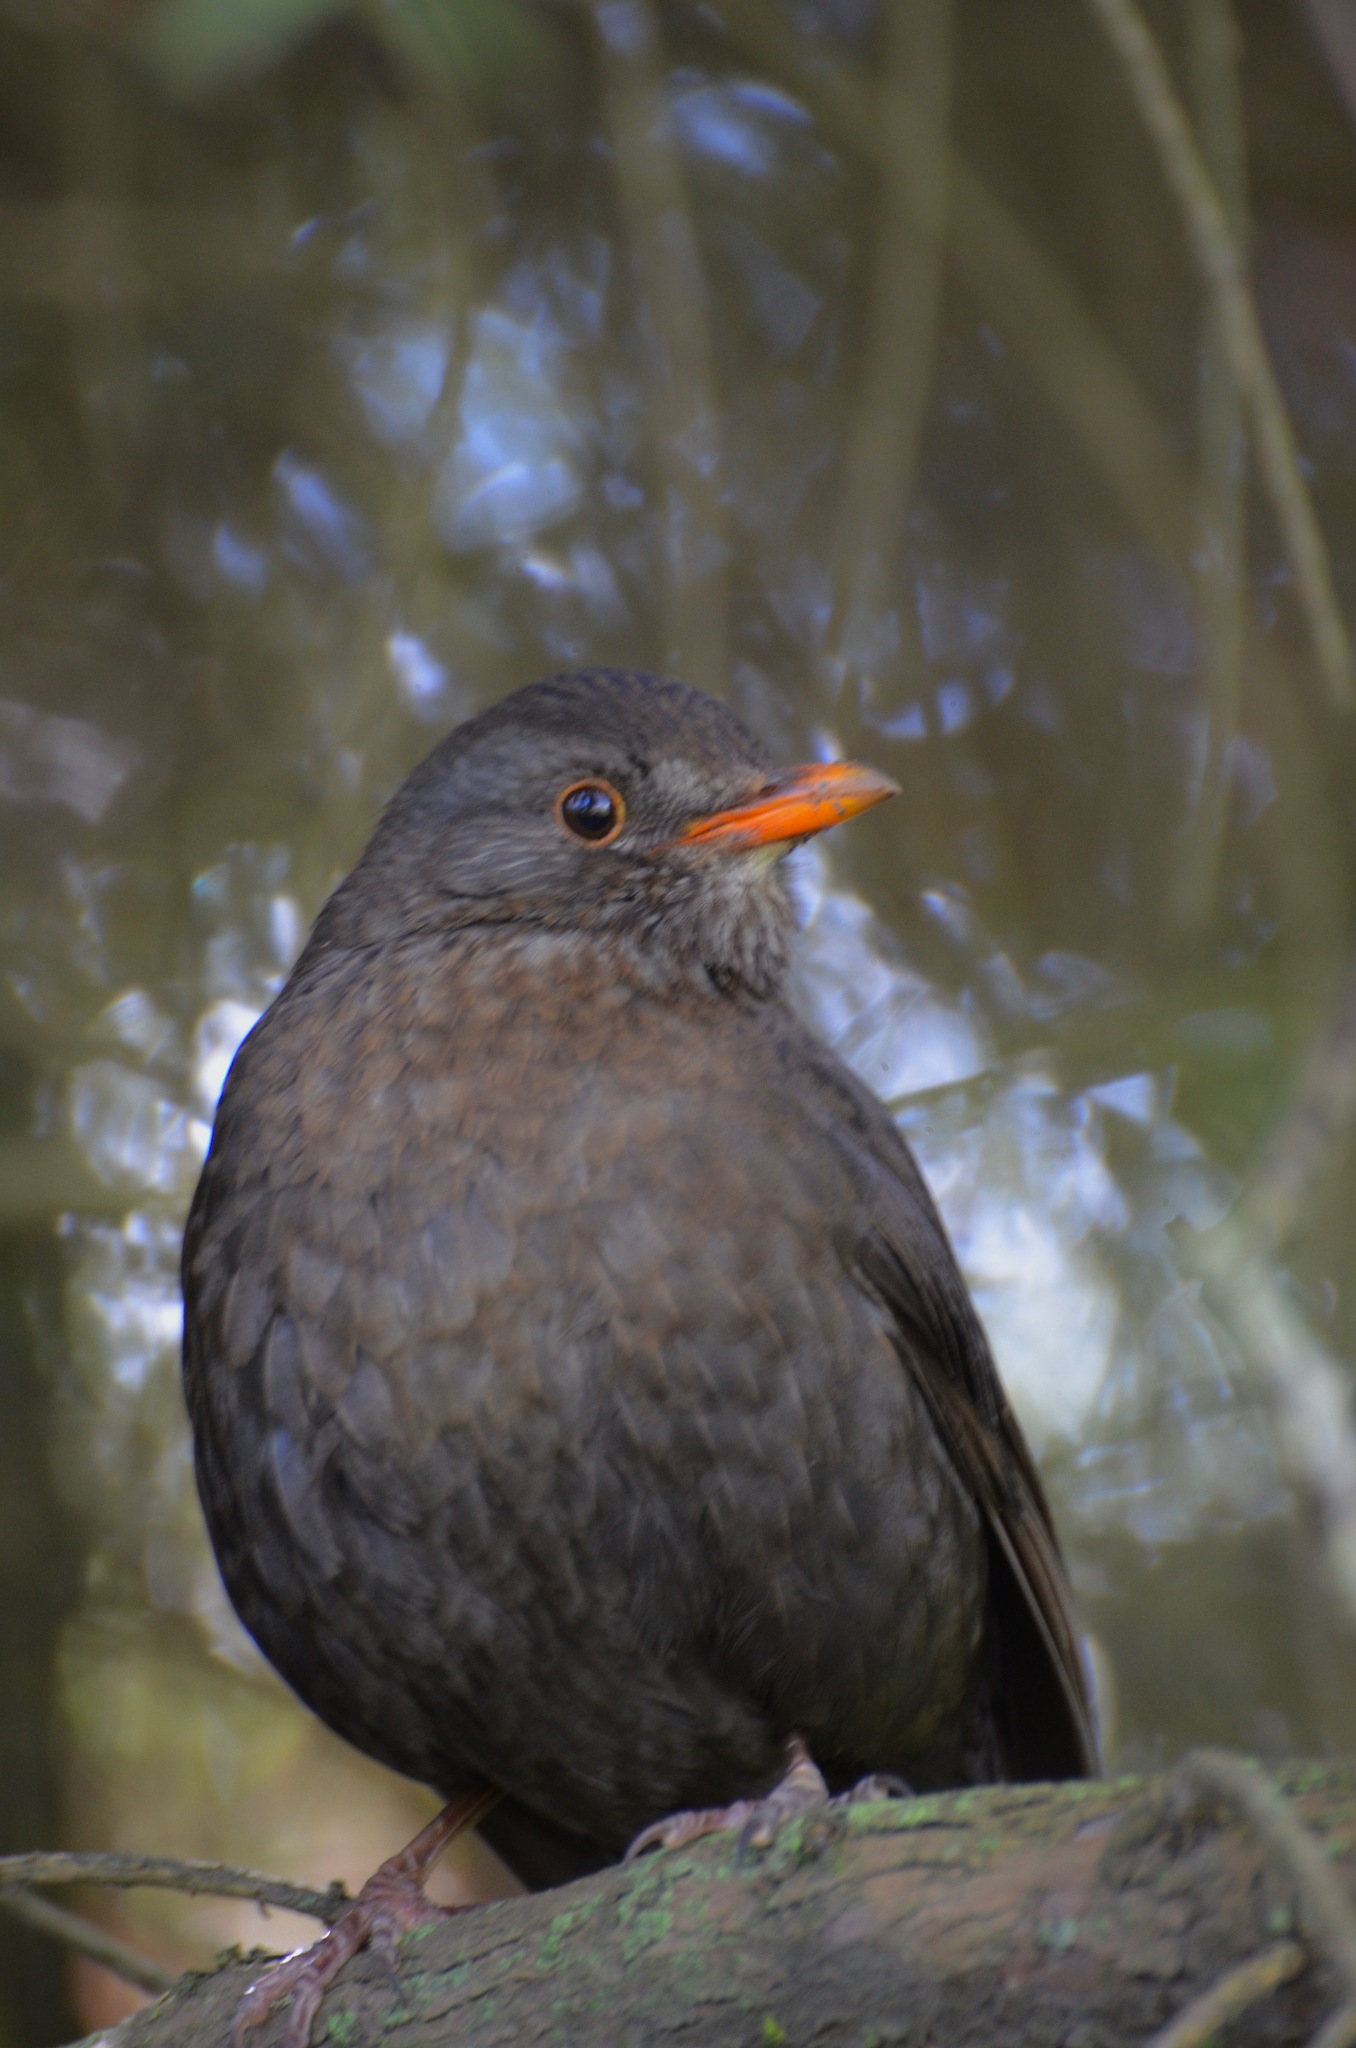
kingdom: Animalia
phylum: Chordata
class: Aves
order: Passeriformes
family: Turdidae
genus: Turdus
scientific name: Turdus merula
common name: Common blackbird
